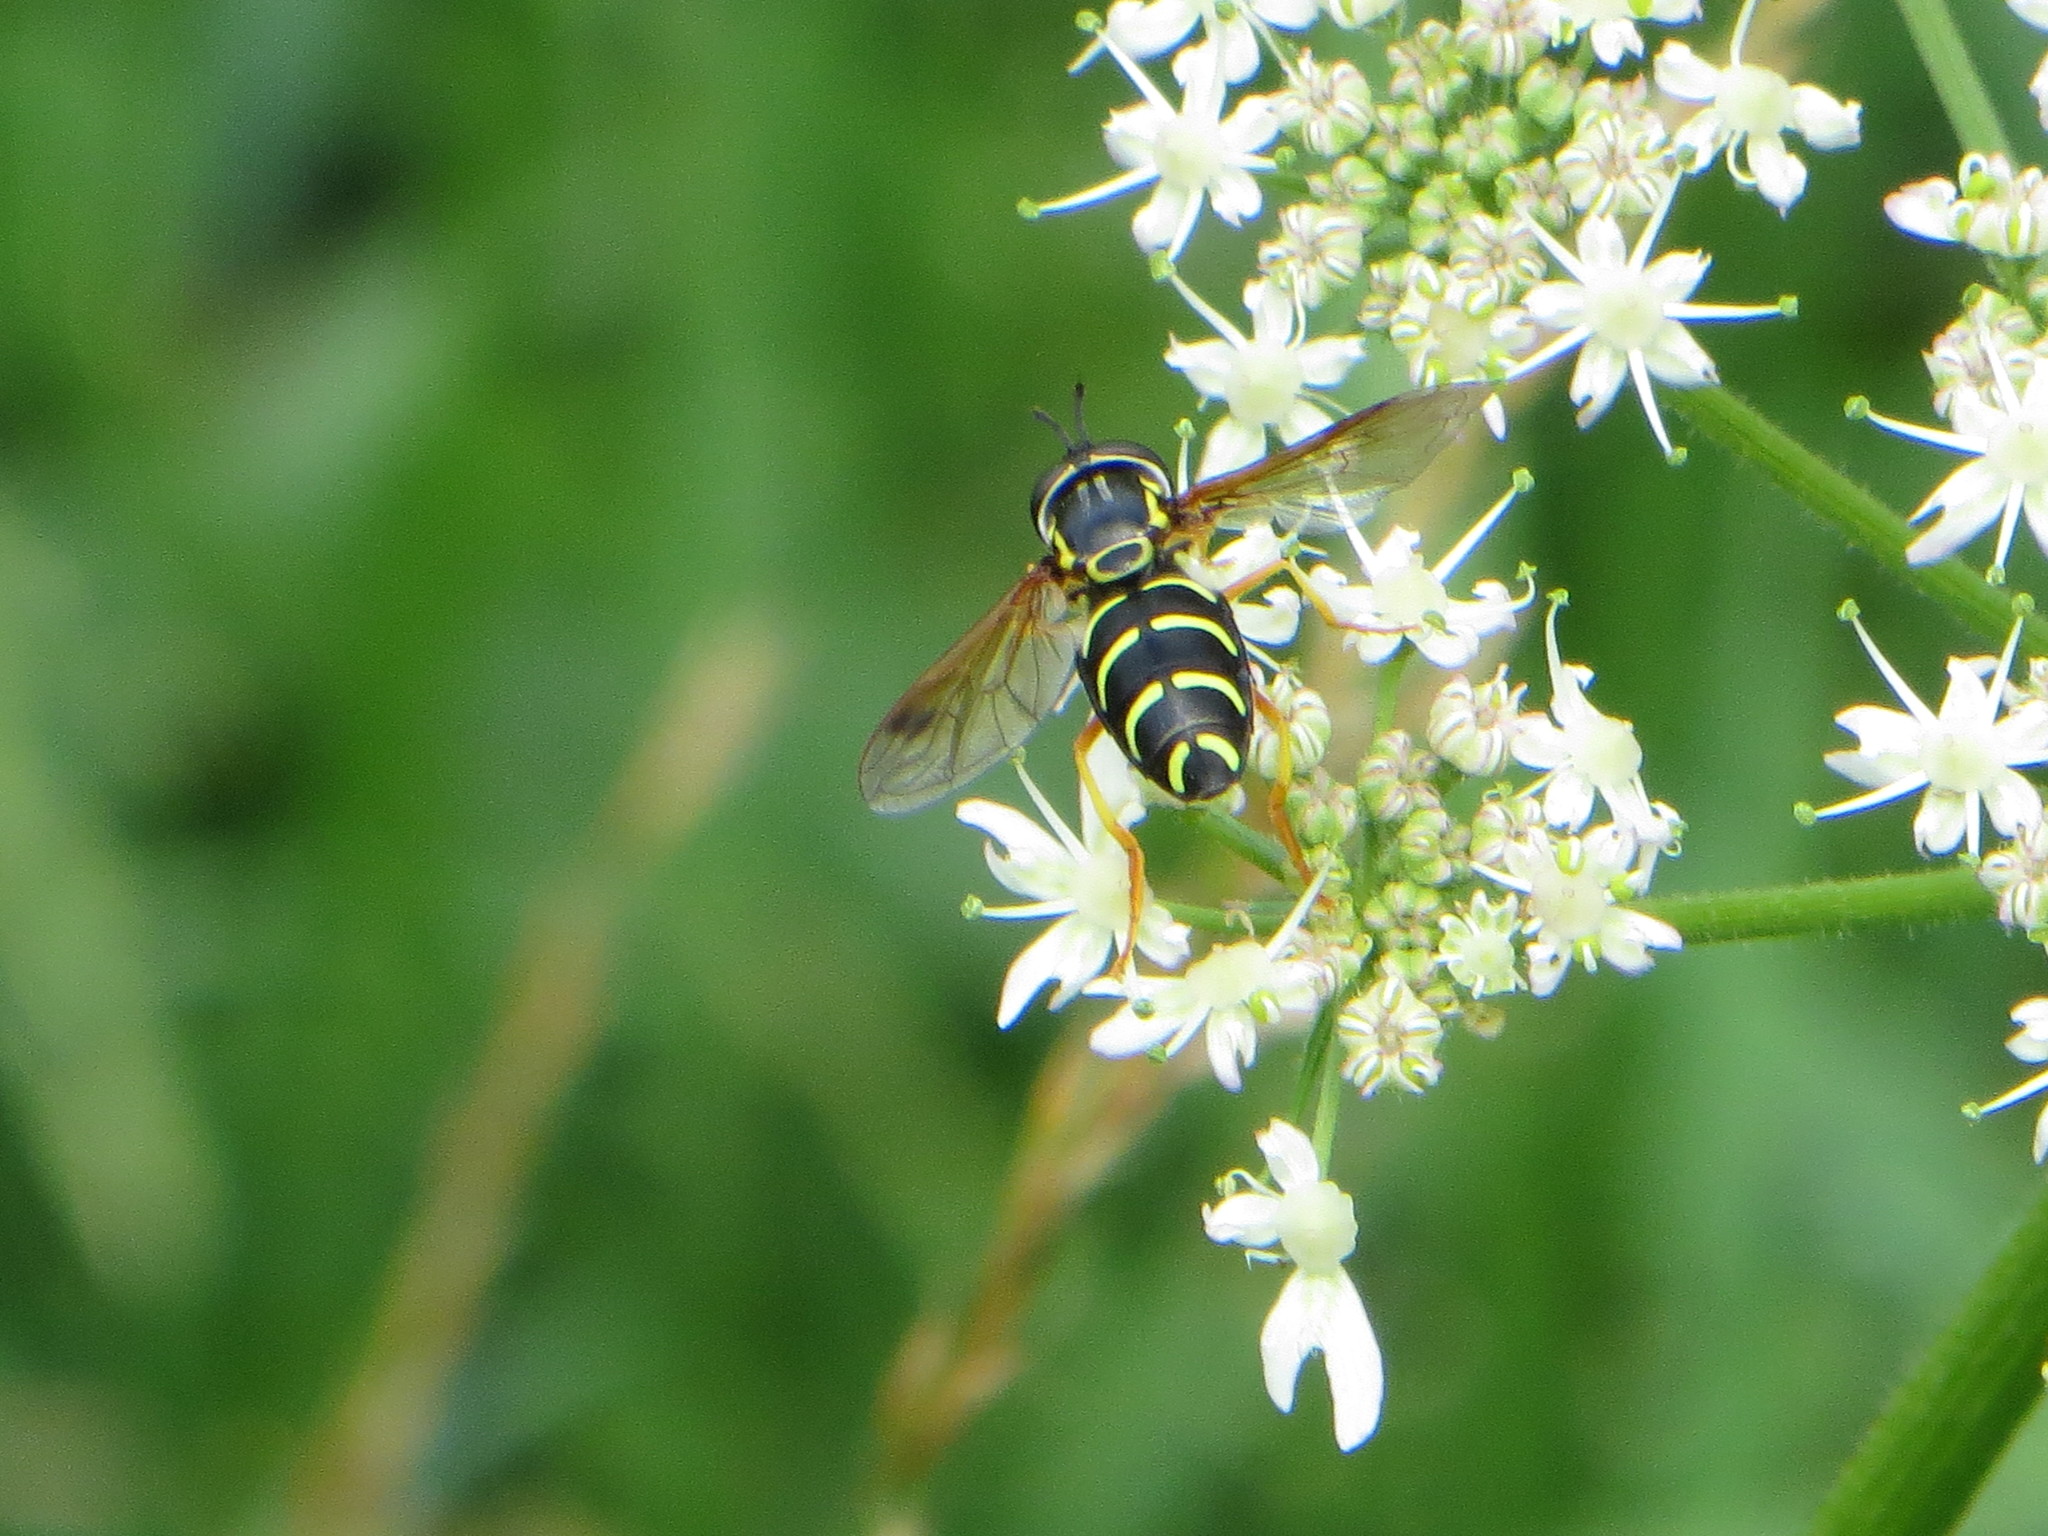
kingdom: Animalia
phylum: Arthropoda
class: Insecta
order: Diptera
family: Syrphidae
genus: Chrysotoxum
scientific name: Chrysotoxum festivum
